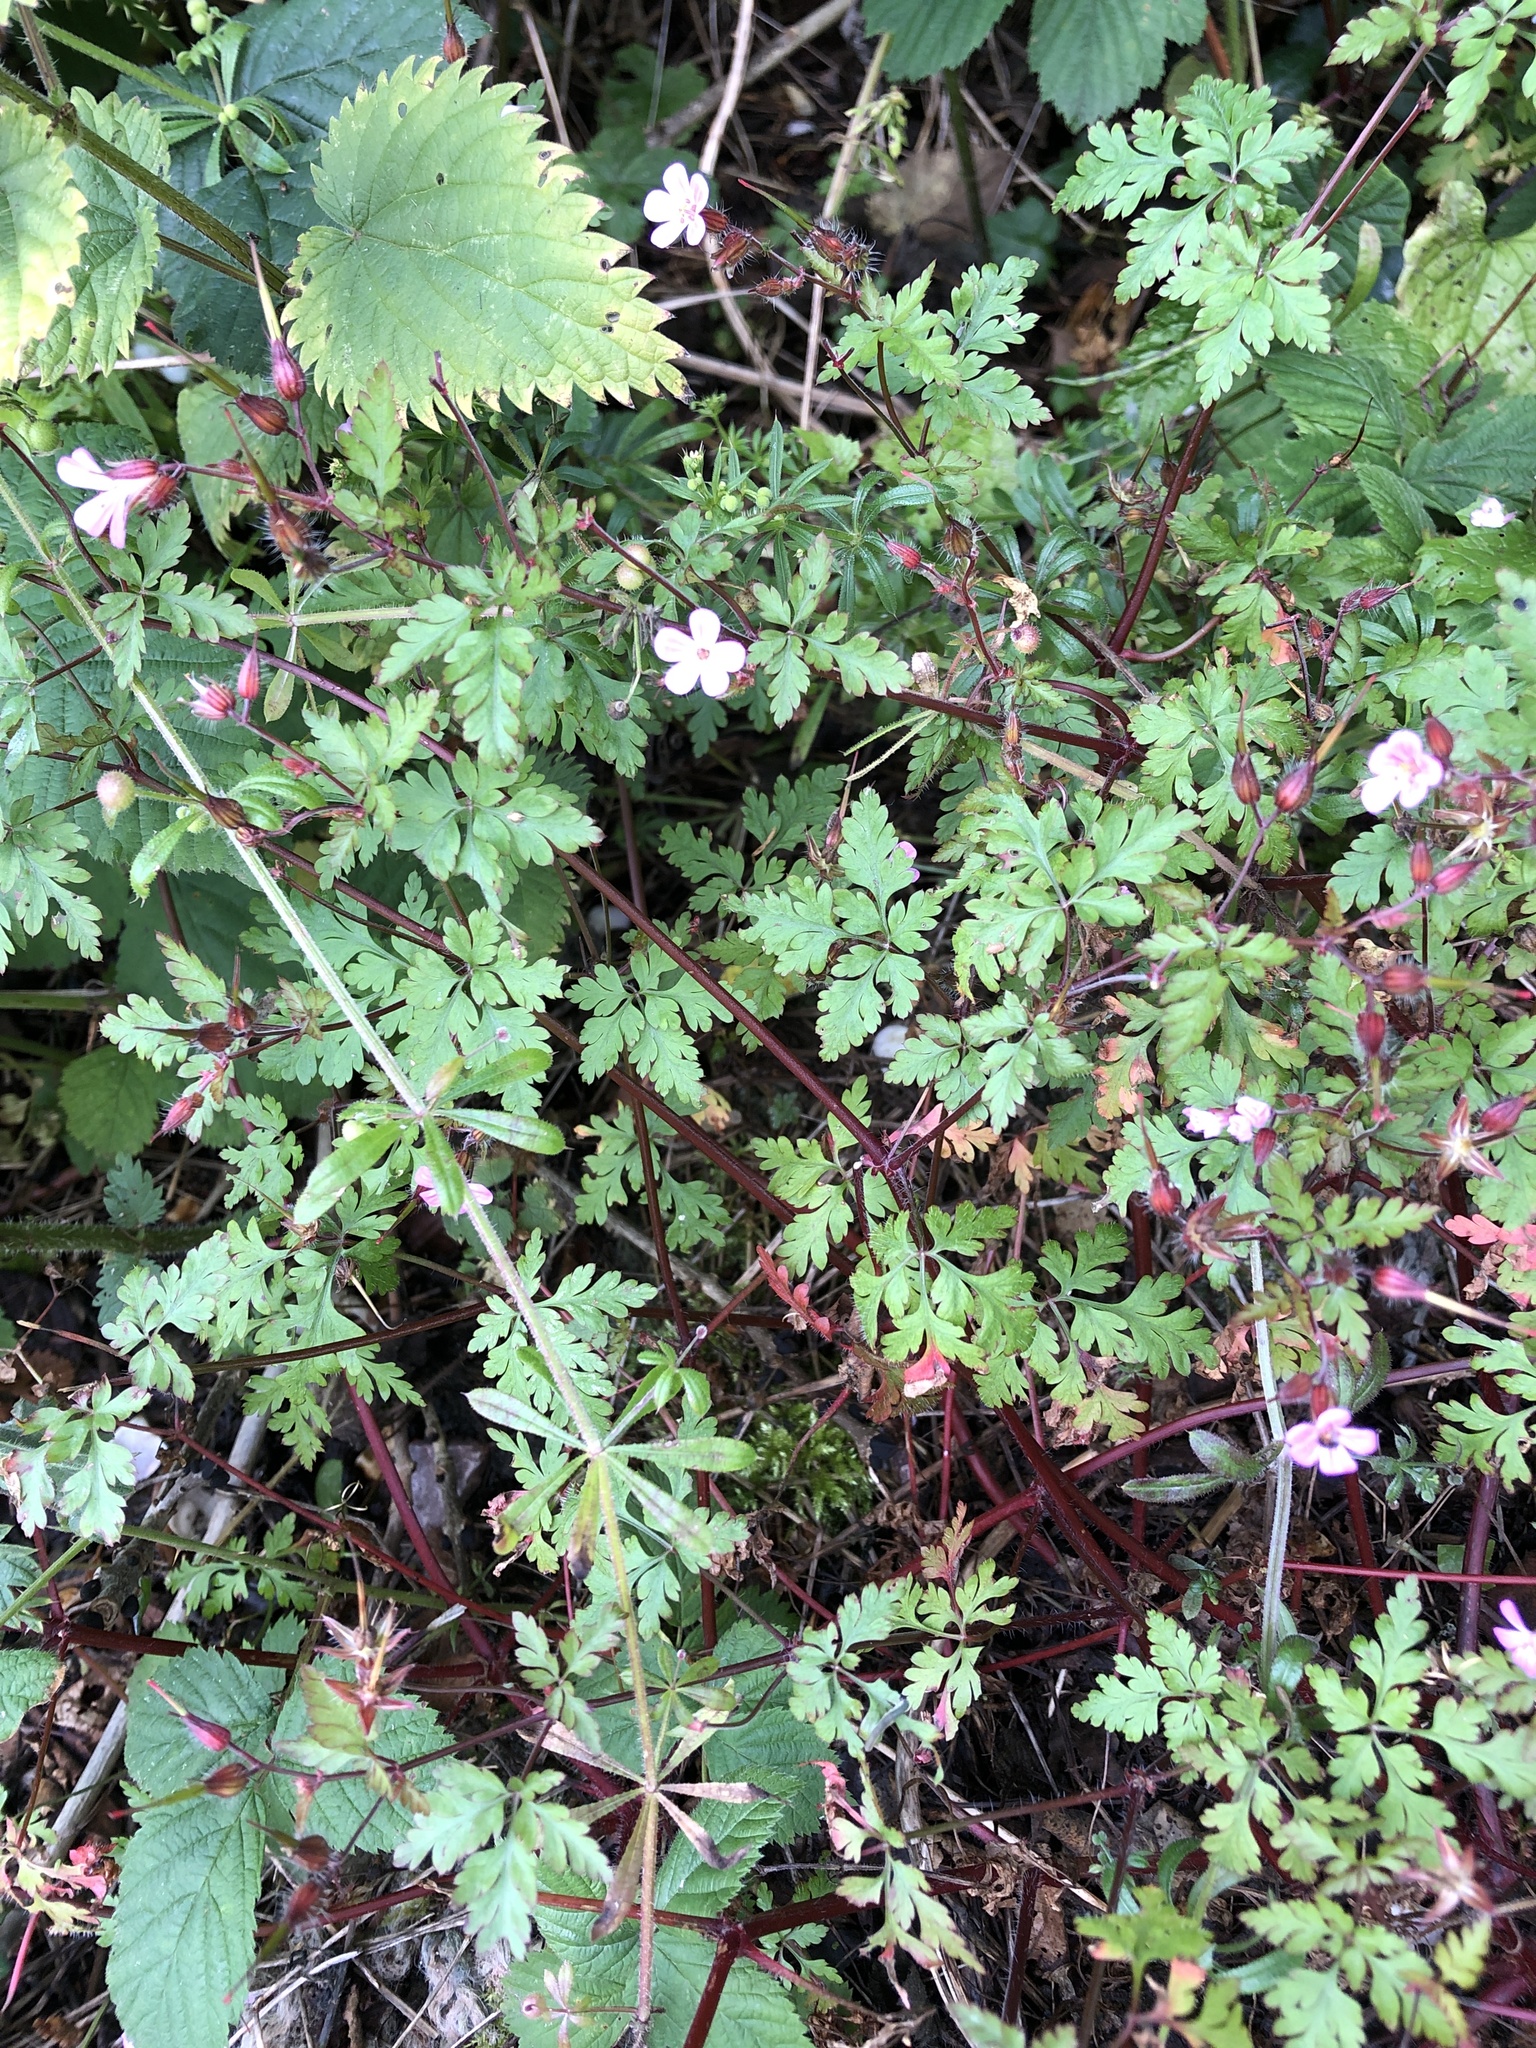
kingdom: Plantae
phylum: Tracheophyta
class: Magnoliopsida
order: Geraniales
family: Geraniaceae
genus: Geranium
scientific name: Geranium robertianum
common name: Herb-robert
